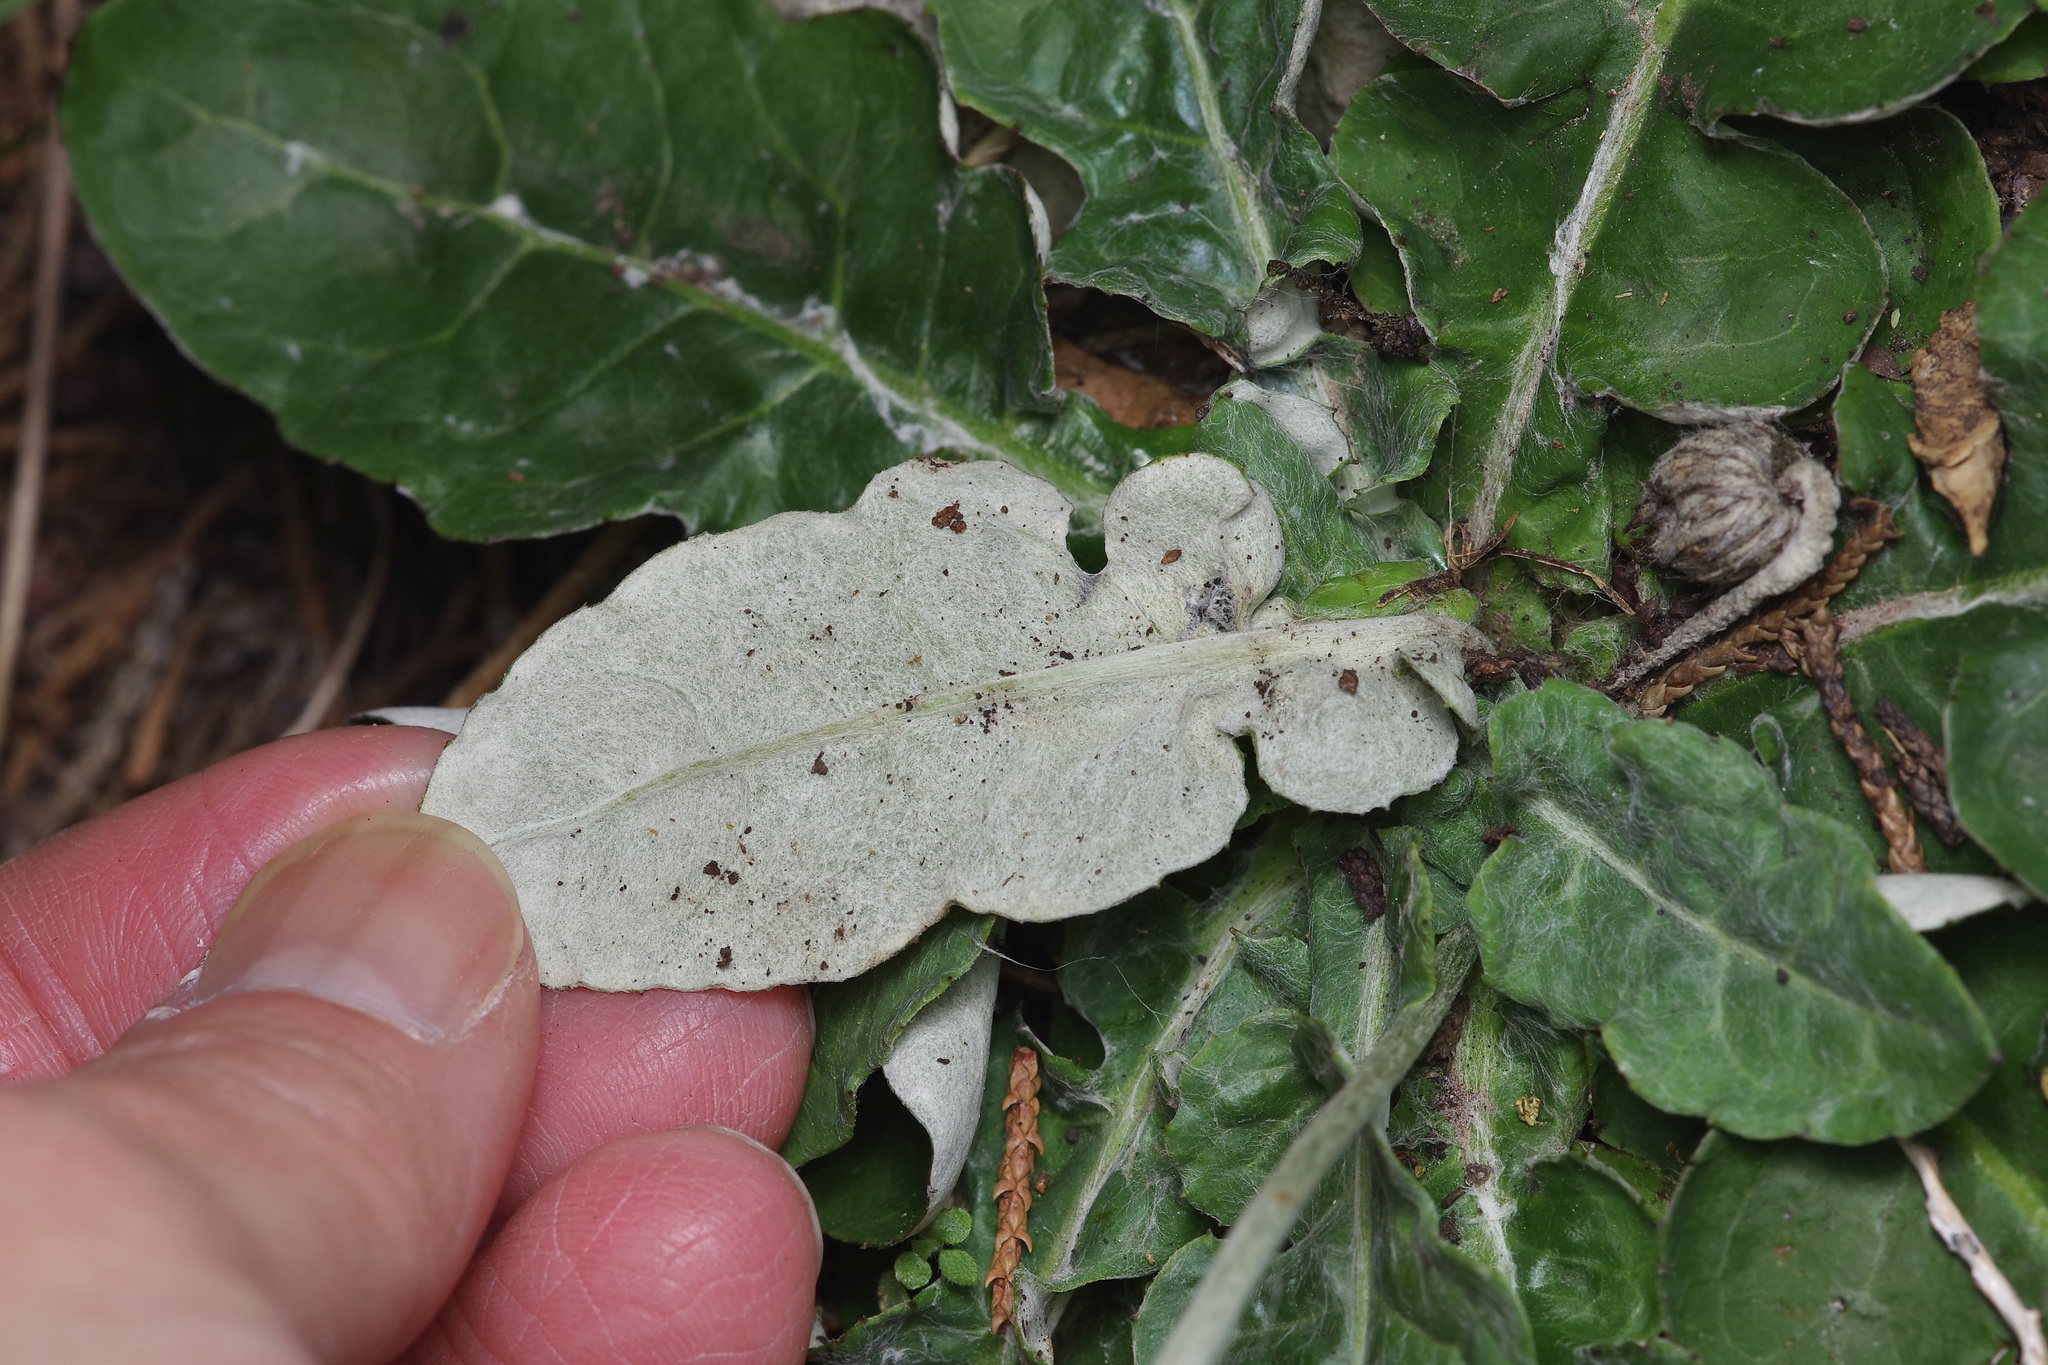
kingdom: Plantae
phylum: Tracheophyta
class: Magnoliopsida
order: Asterales
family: Asteraceae
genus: Chaptalia
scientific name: Chaptalia texana
